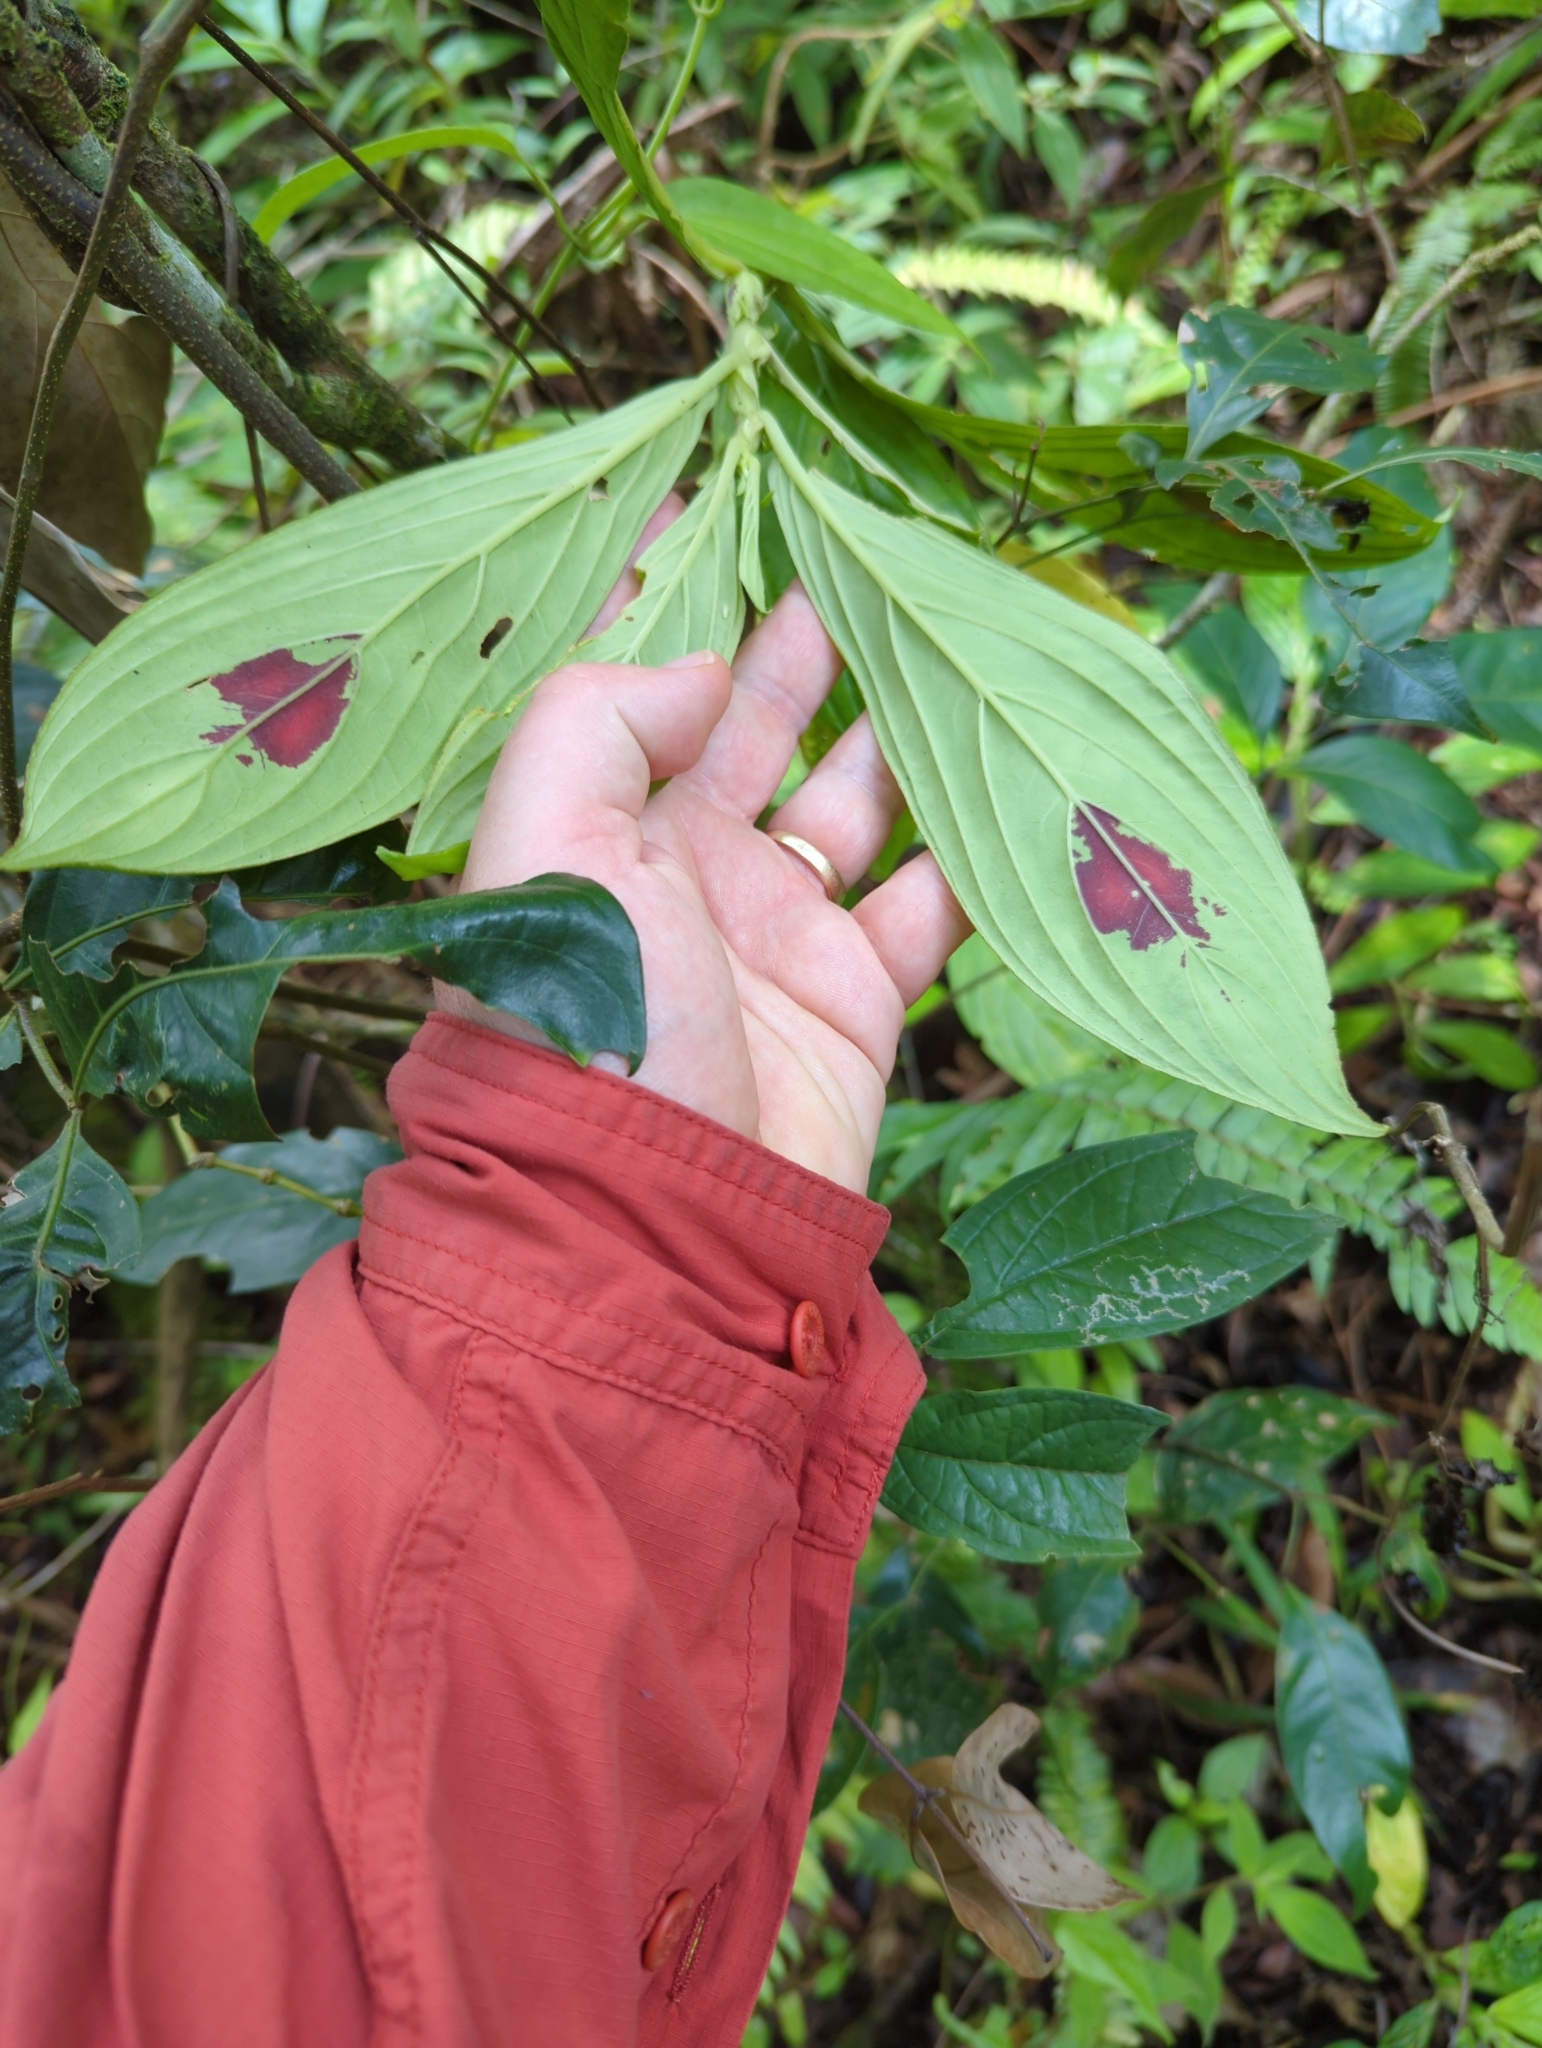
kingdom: Plantae
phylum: Tracheophyta
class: Magnoliopsida
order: Lamiales
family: Gesneriaceae
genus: Columnea
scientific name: Columnea consanguinea
